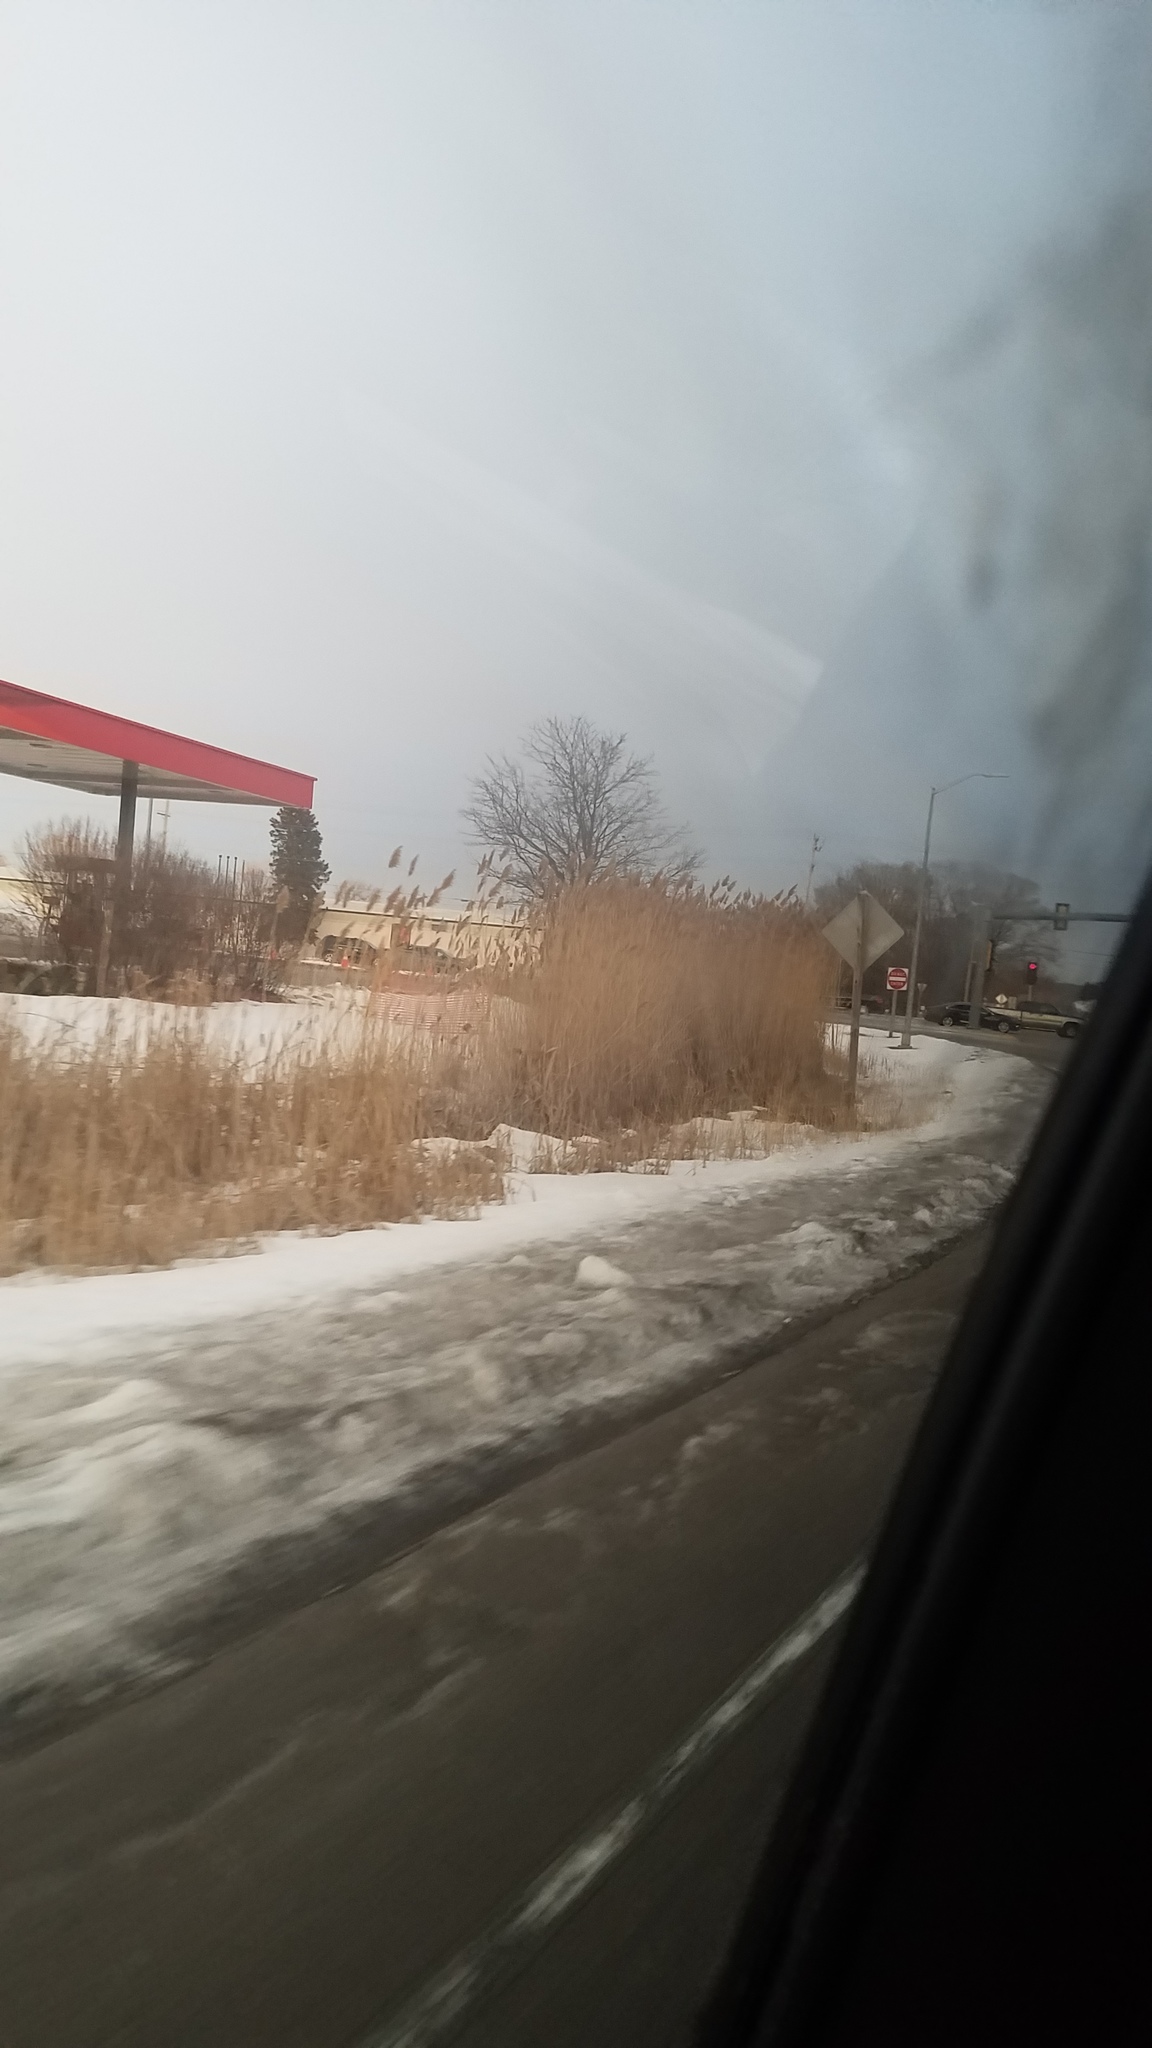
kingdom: Plantae
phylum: Tracheophyta
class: Liliopsida
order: Poales
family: Poaceae
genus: Phragmites
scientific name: Phragmites australis
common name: Common reed
